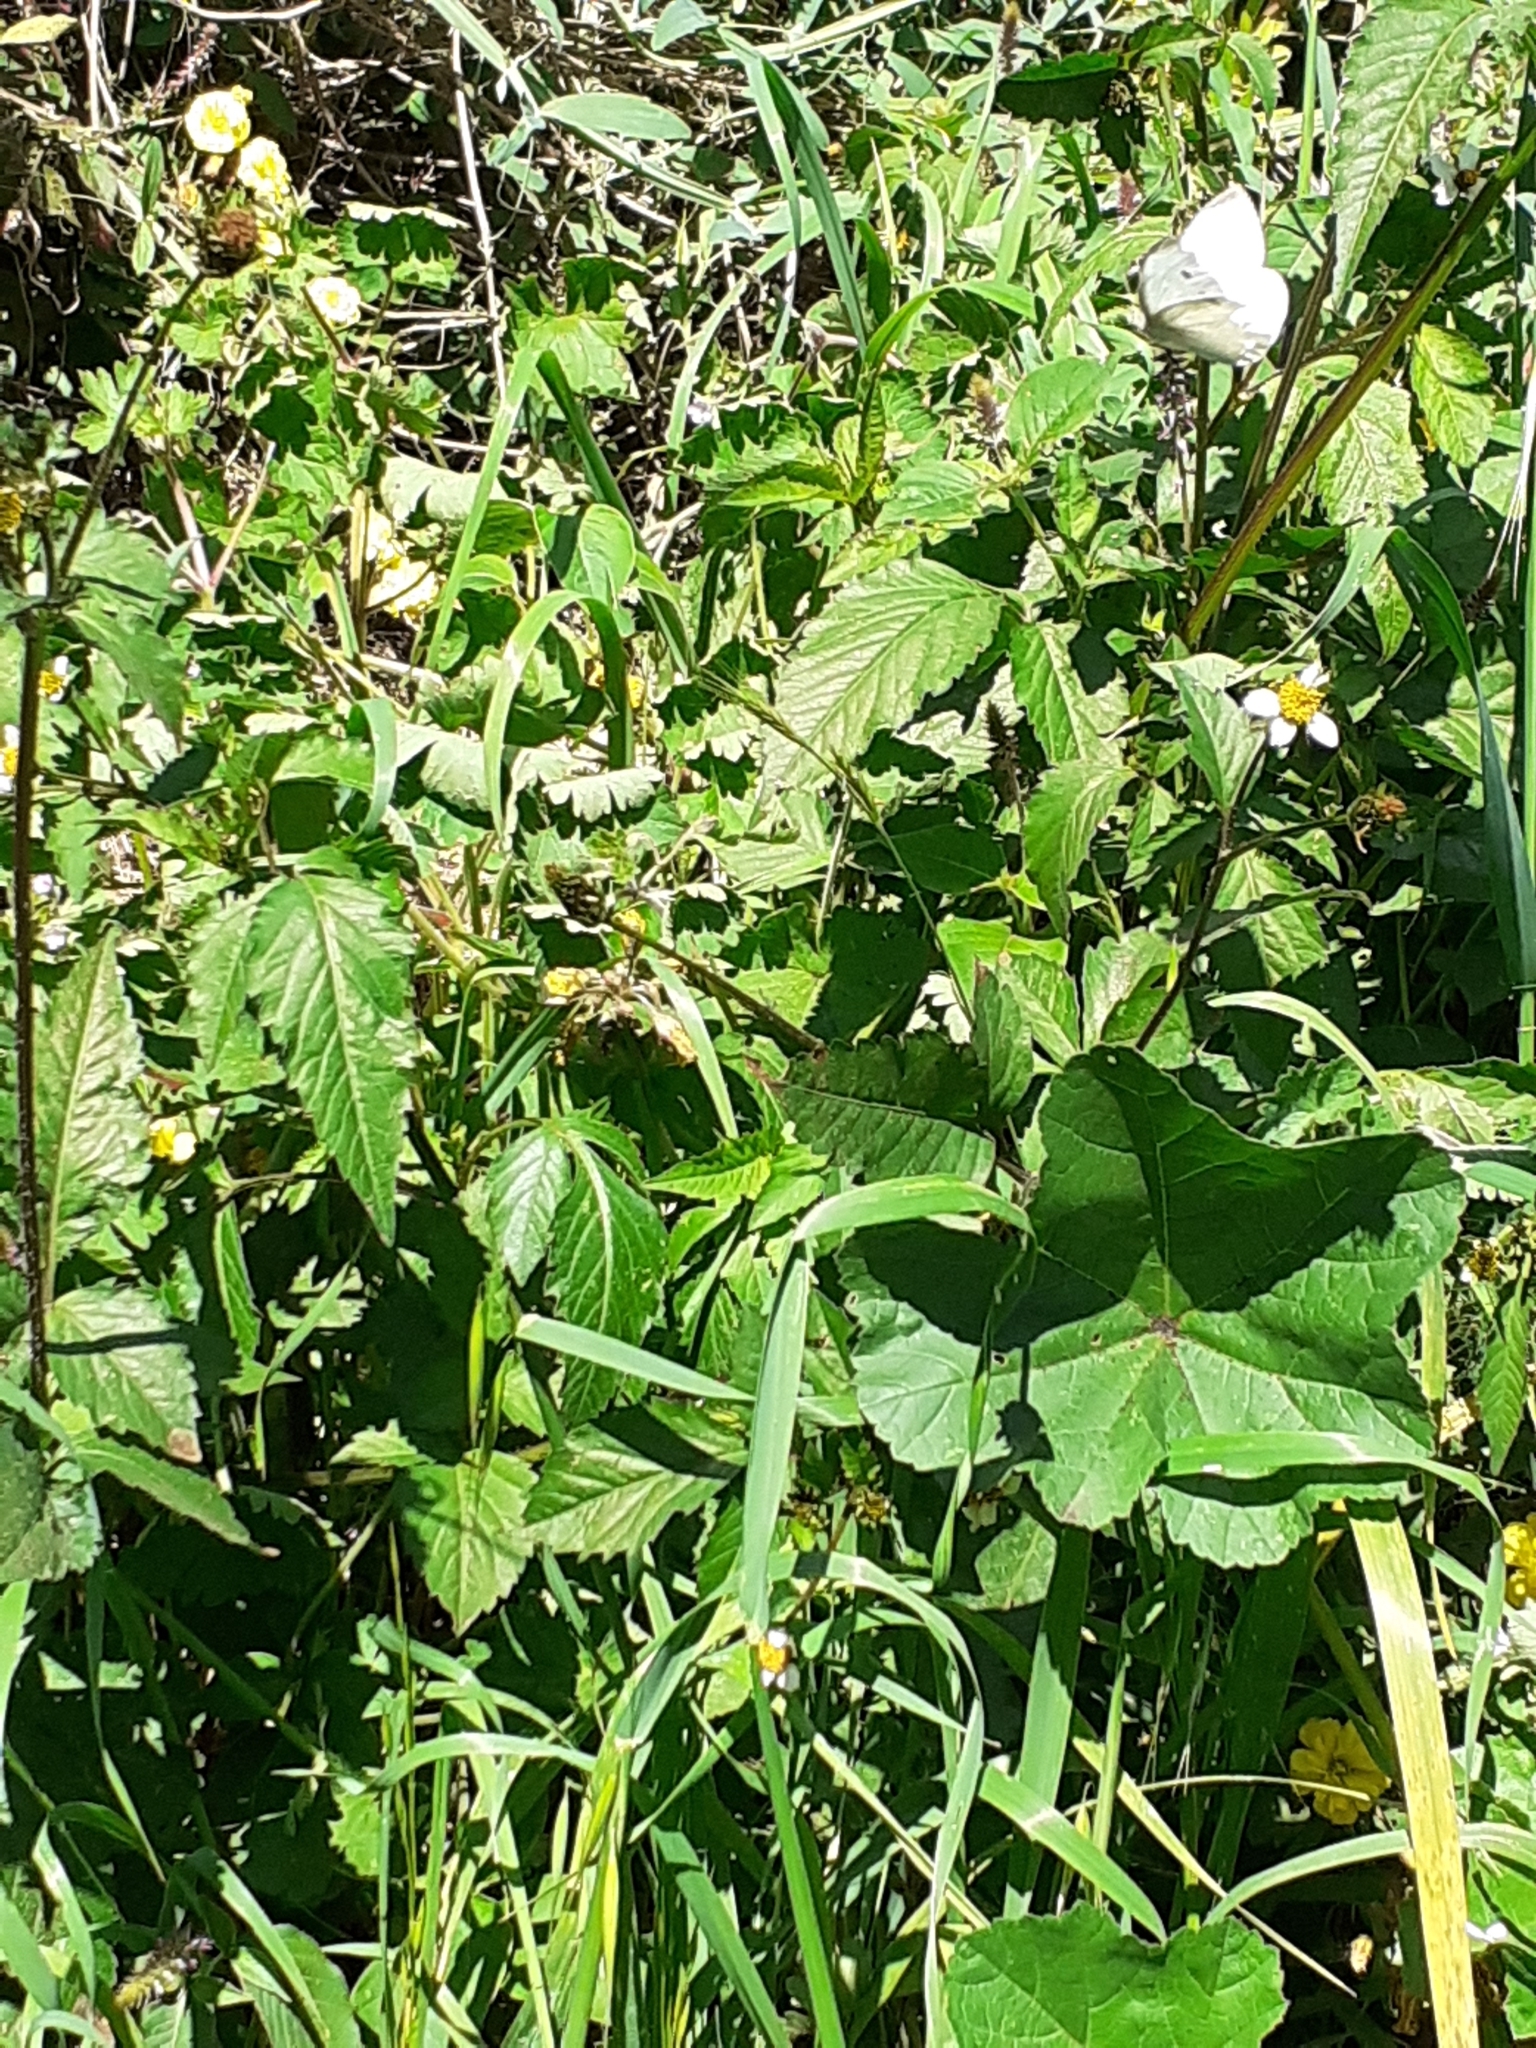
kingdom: Animalia
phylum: Arthropoda
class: Insecta
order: Lepidoptera
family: Pieridae
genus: Pieris
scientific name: Pieris rapae
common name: Small white
